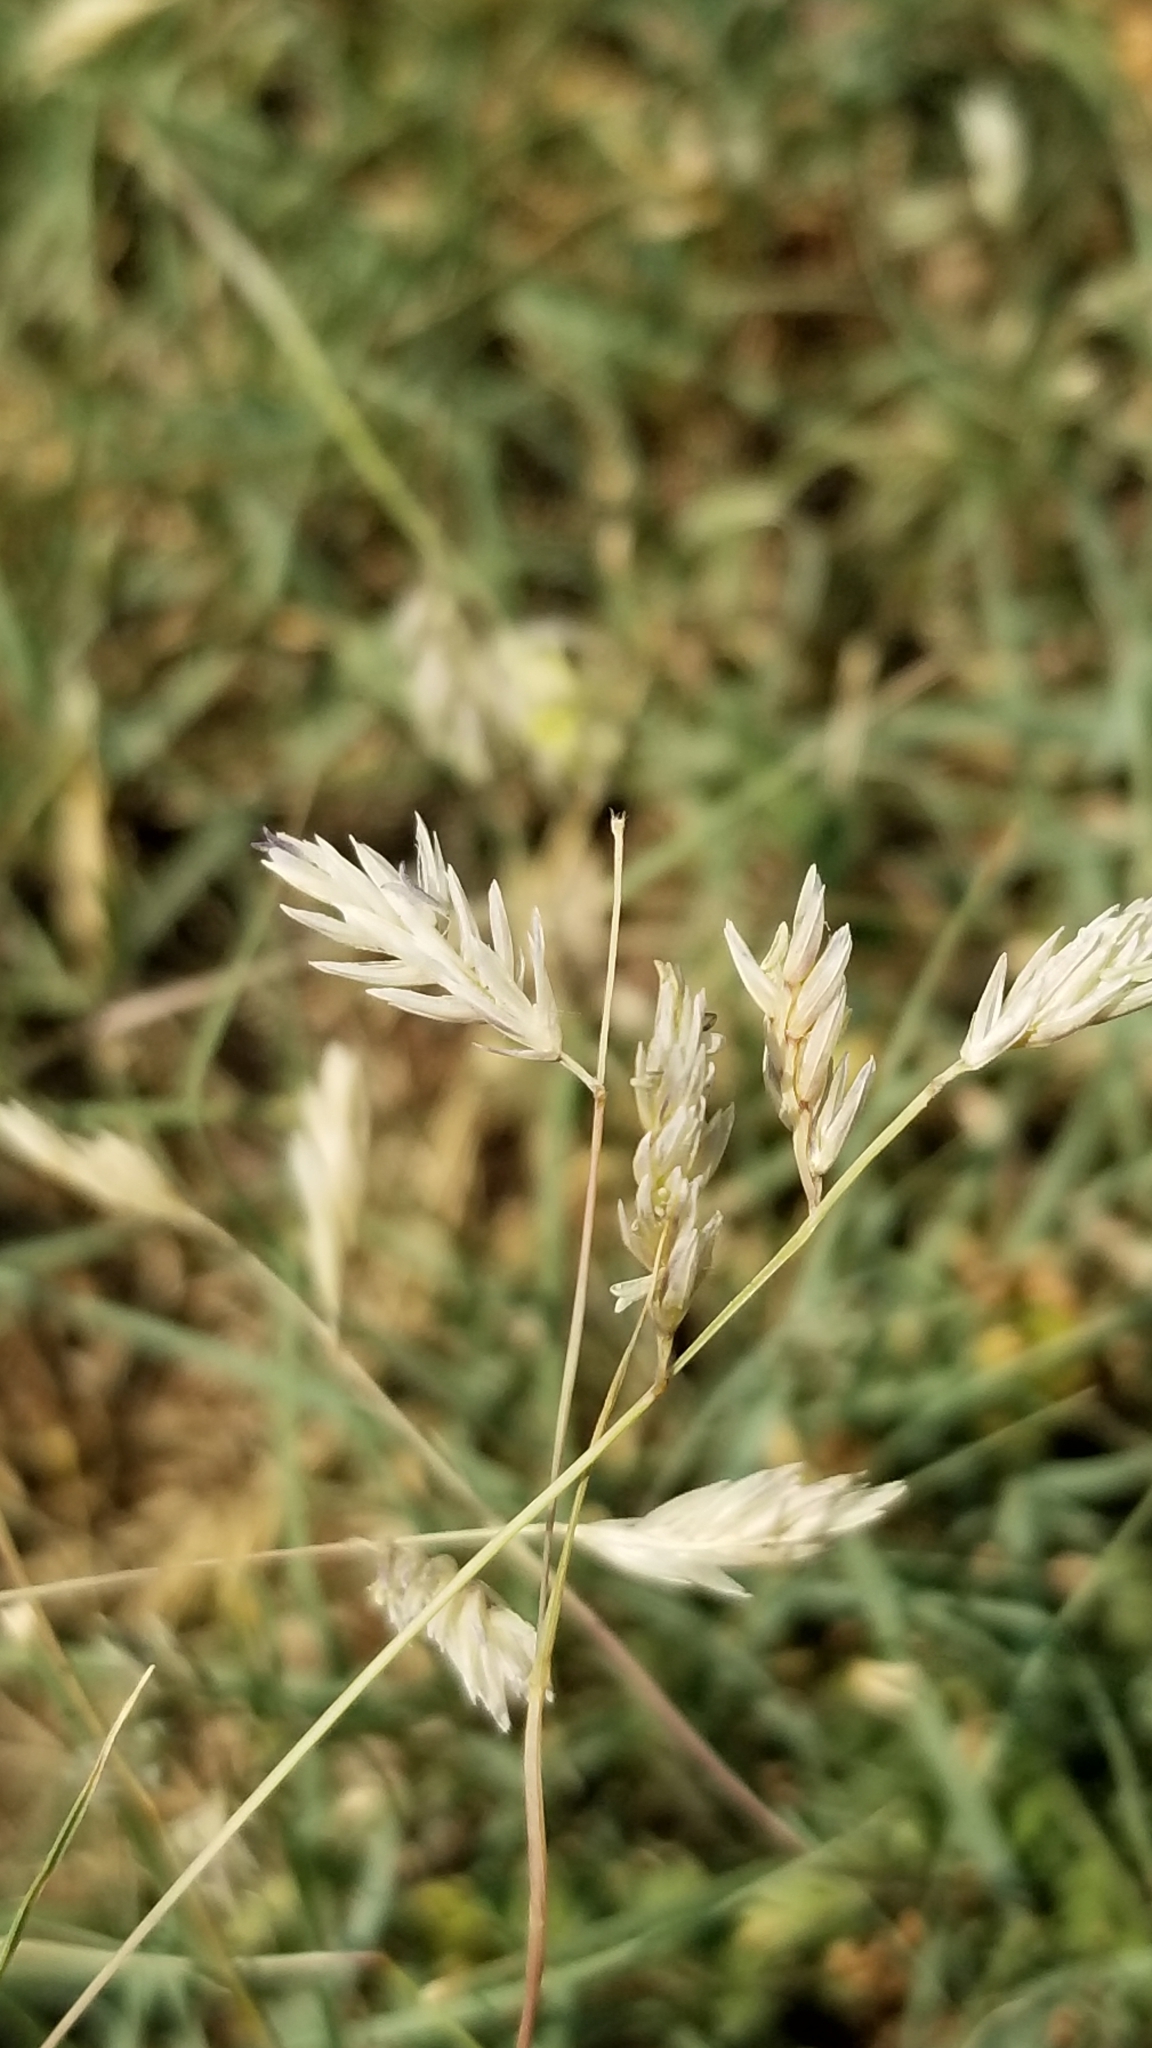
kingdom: Plantae
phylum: Tracheophyta
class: Liliopsida
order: Poales
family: Poaceae
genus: Bouteloua
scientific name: Bouteloua dactyloides
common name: Buffalo grass
